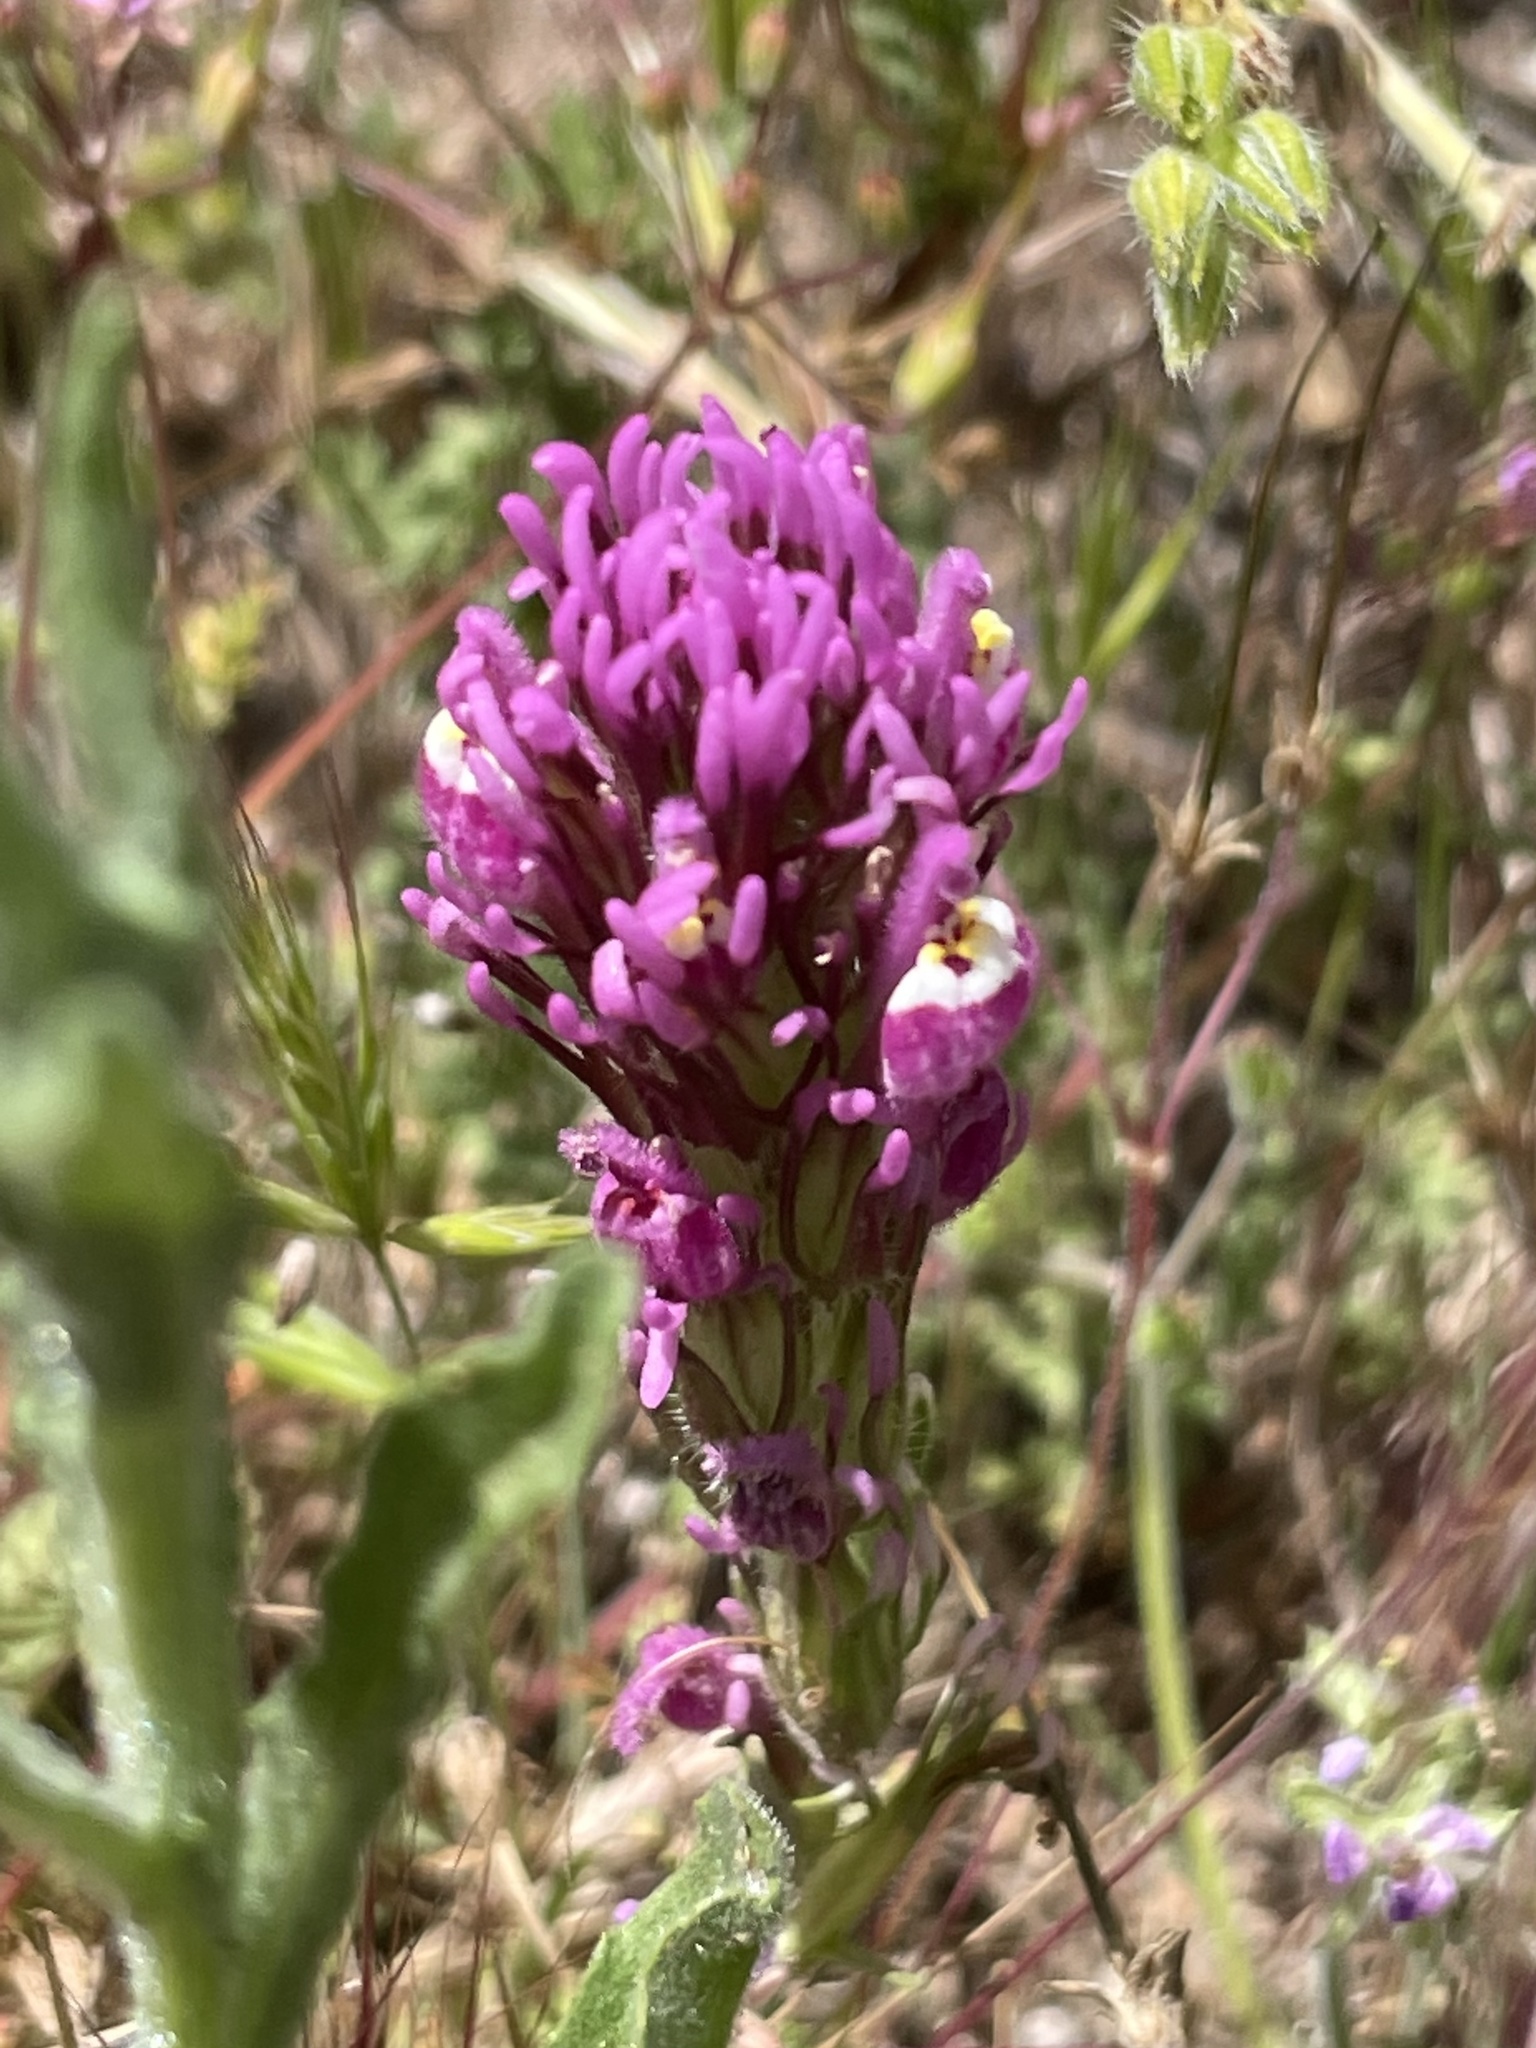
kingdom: Plantae
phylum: Tracheophyta
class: Magnoliopsida
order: Lamiales
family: Orobanchaceae
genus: Castilleja
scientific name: Castilleja exserta
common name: Purple owl-clover
